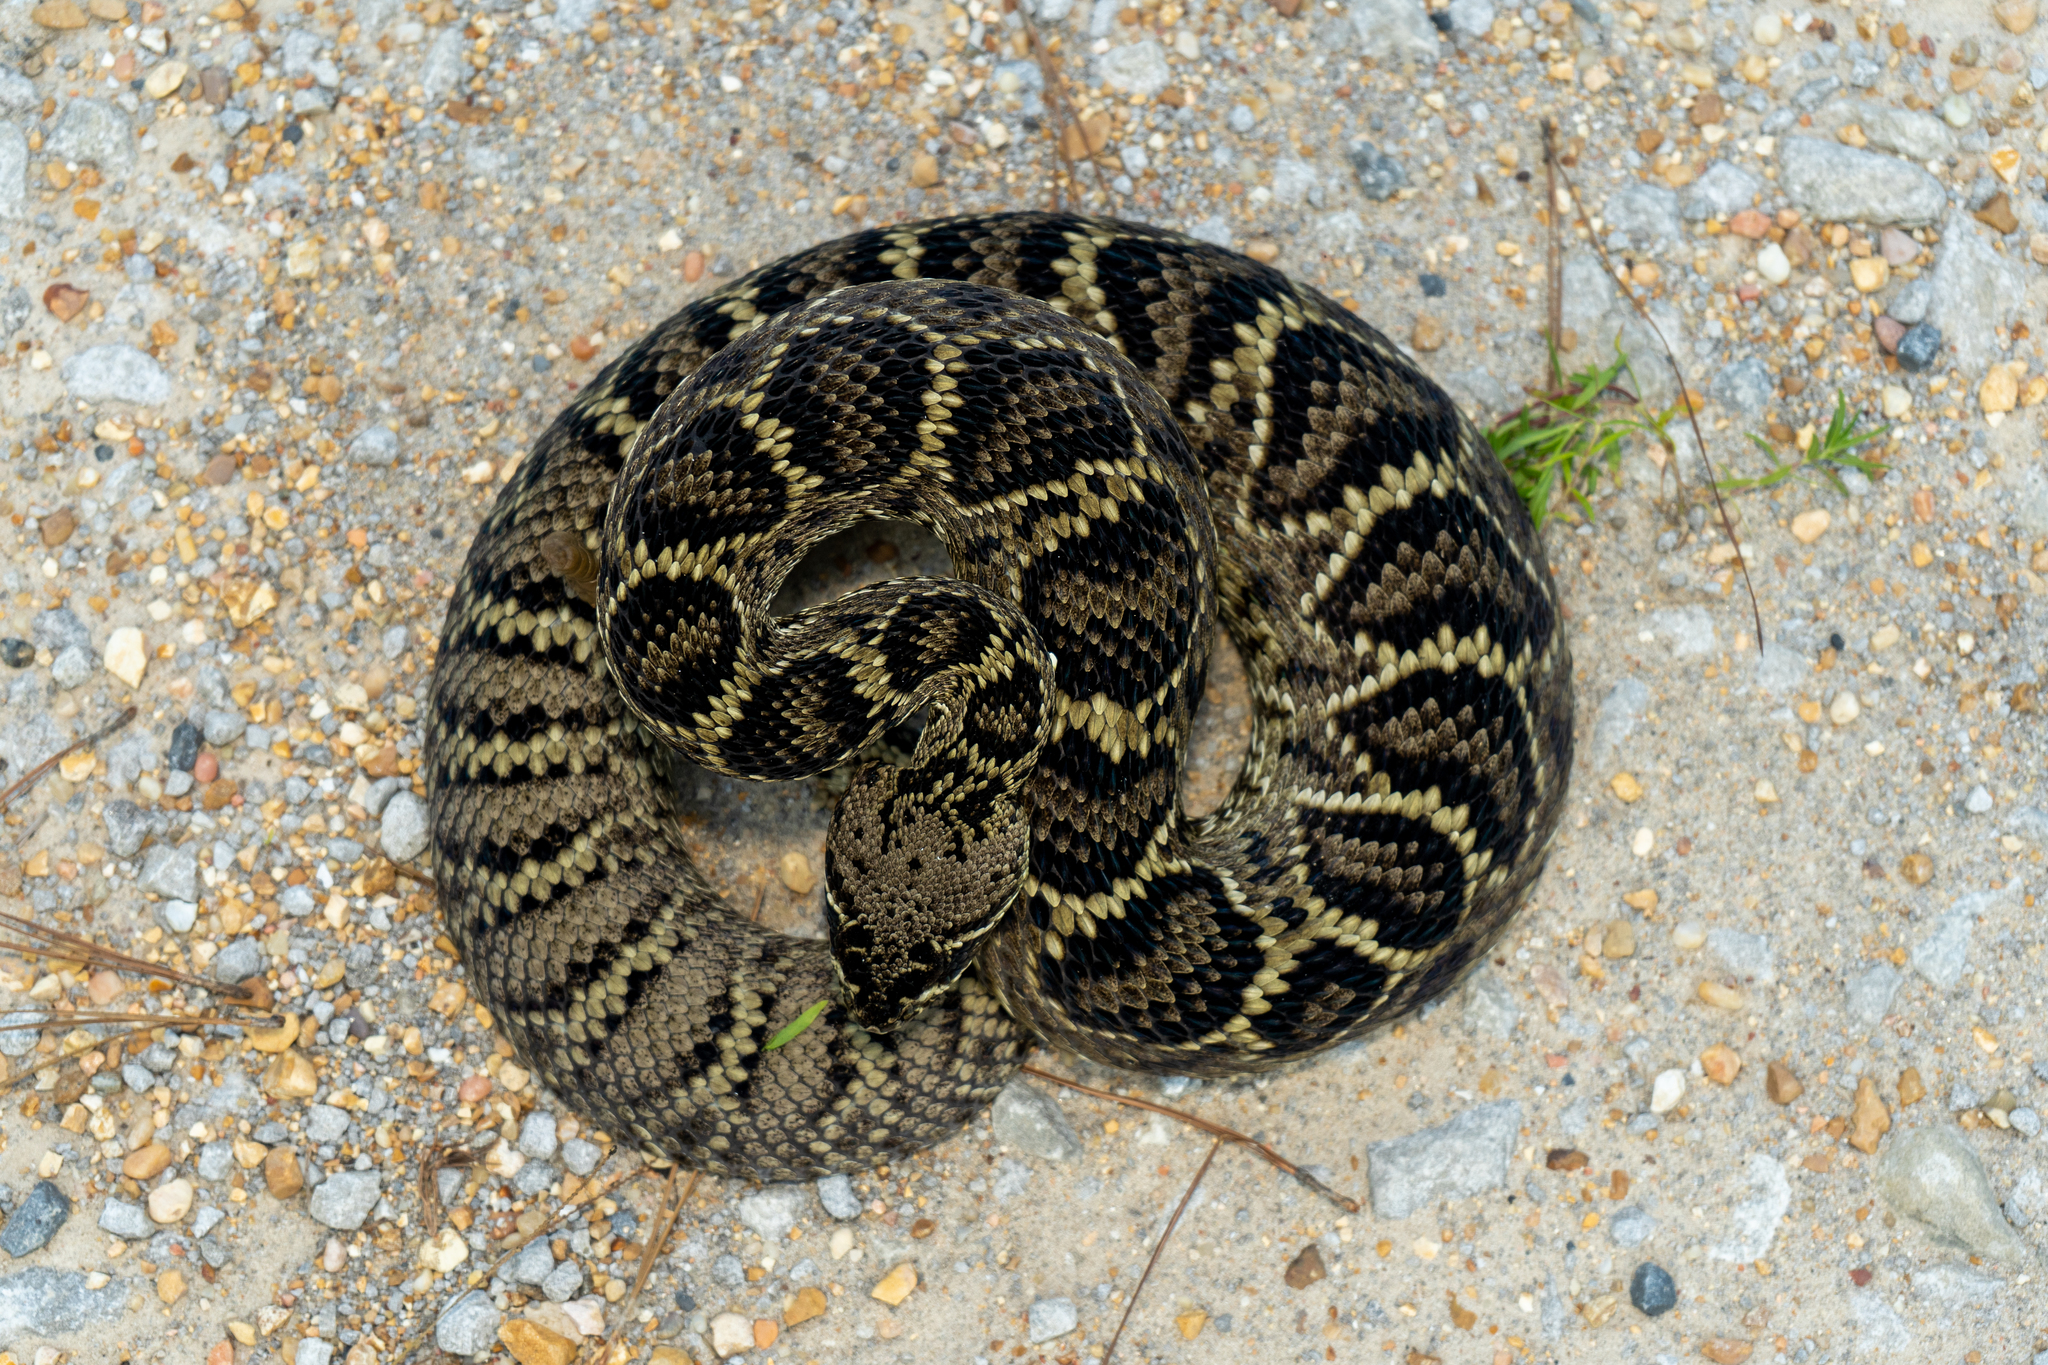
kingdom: Animalia
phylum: Chordata
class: Squamata
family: Viperidae
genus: Crotalus
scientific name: Crotalus adamanteus
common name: Eastern diamondback rattlesnake
